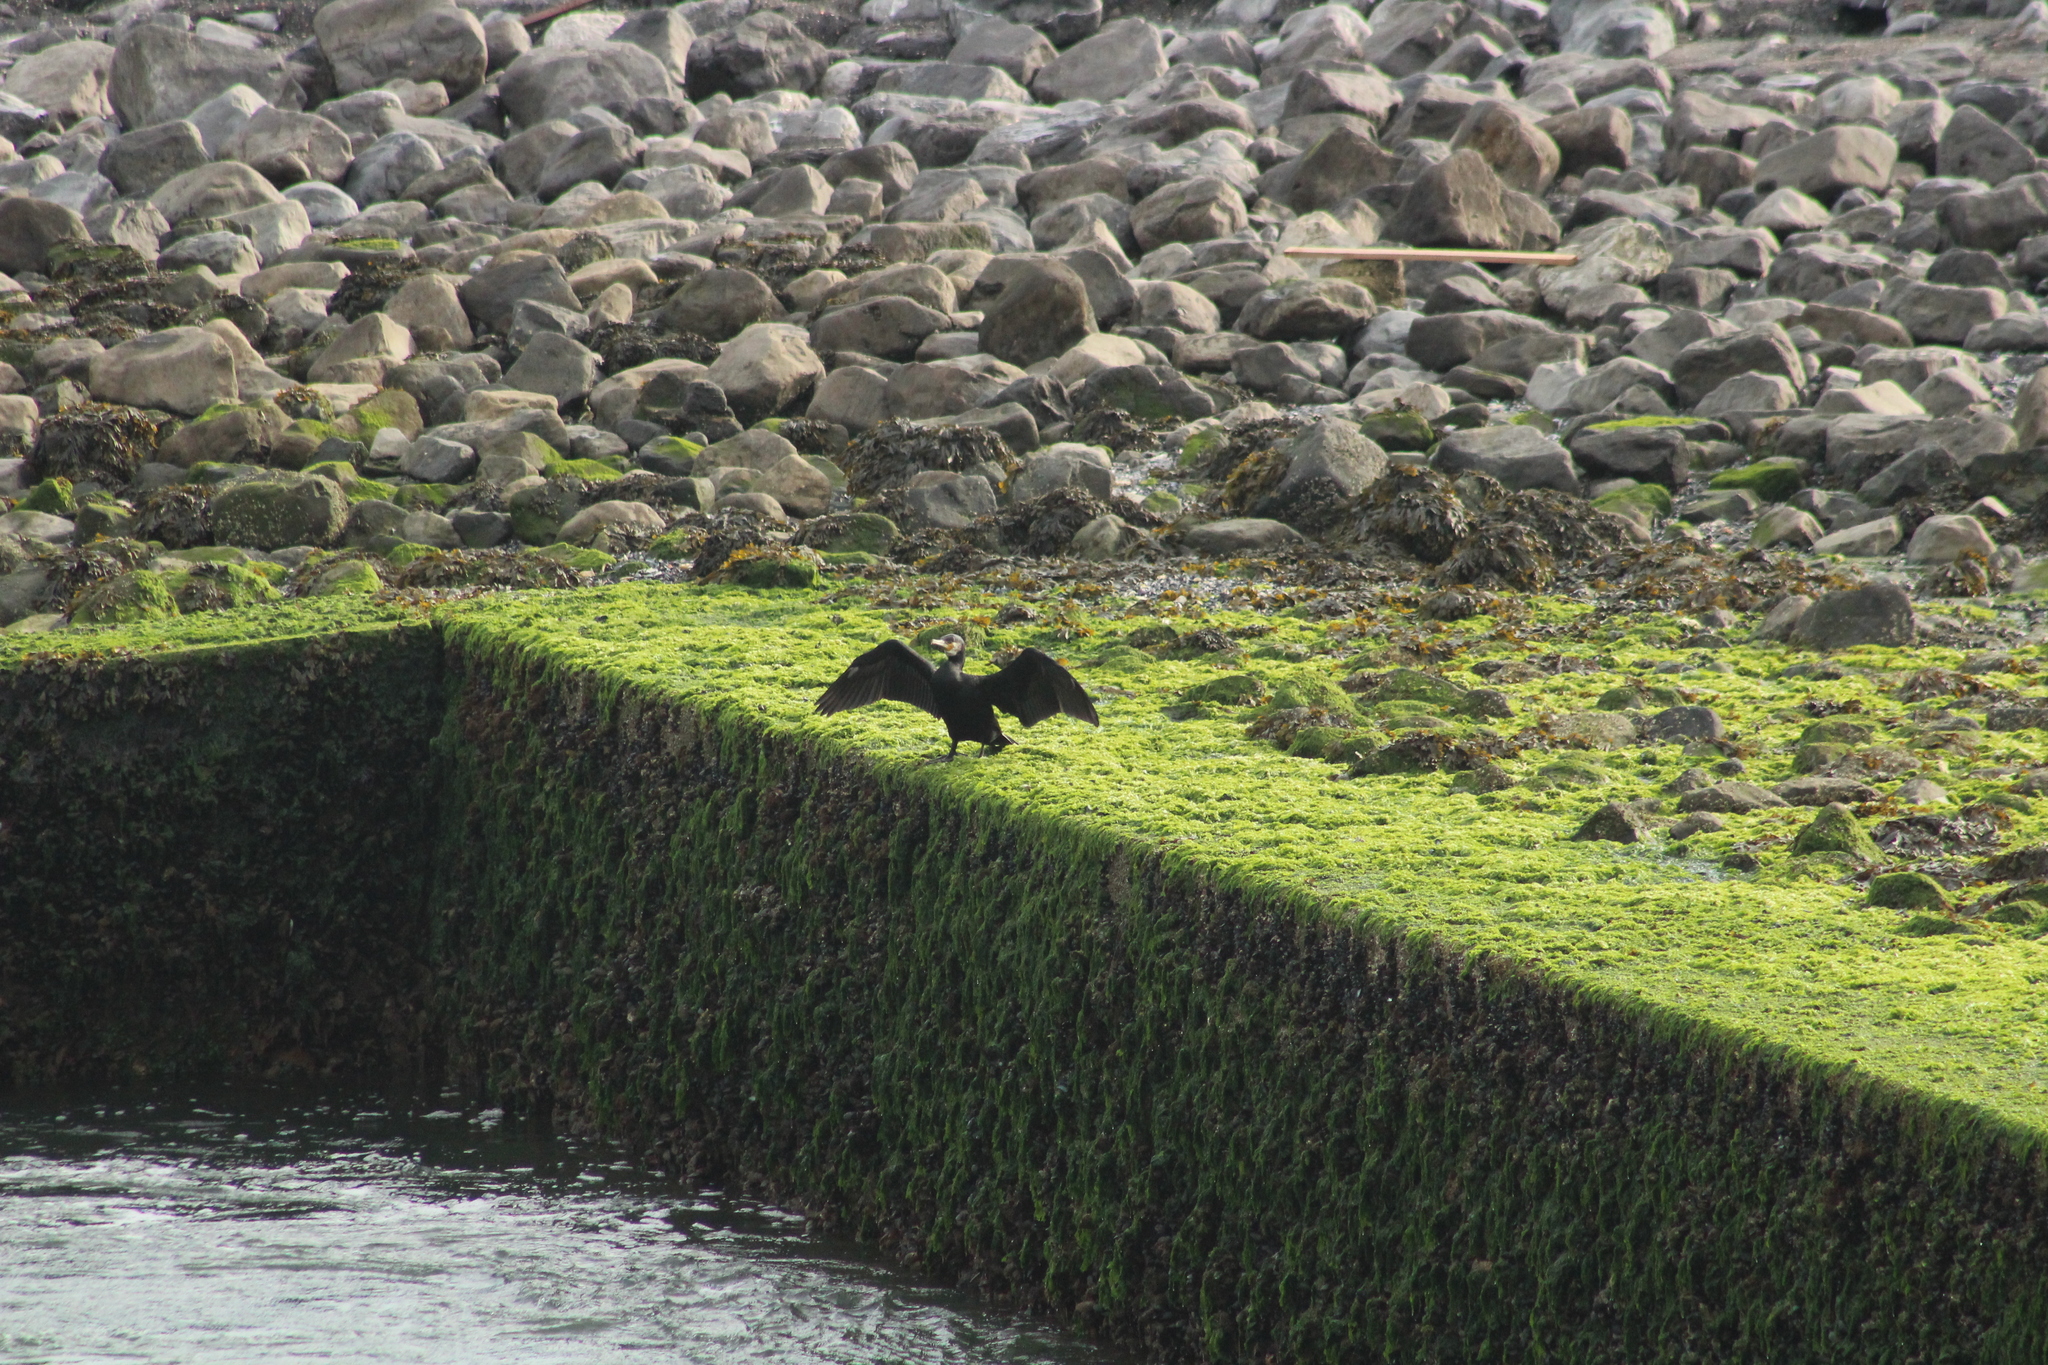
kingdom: Animalia
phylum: Chordata
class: Aves
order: Suliformes
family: Phalacrocoracidae
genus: Phalacrocorax
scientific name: Phalacrocorax carbo
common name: Great cormorant
